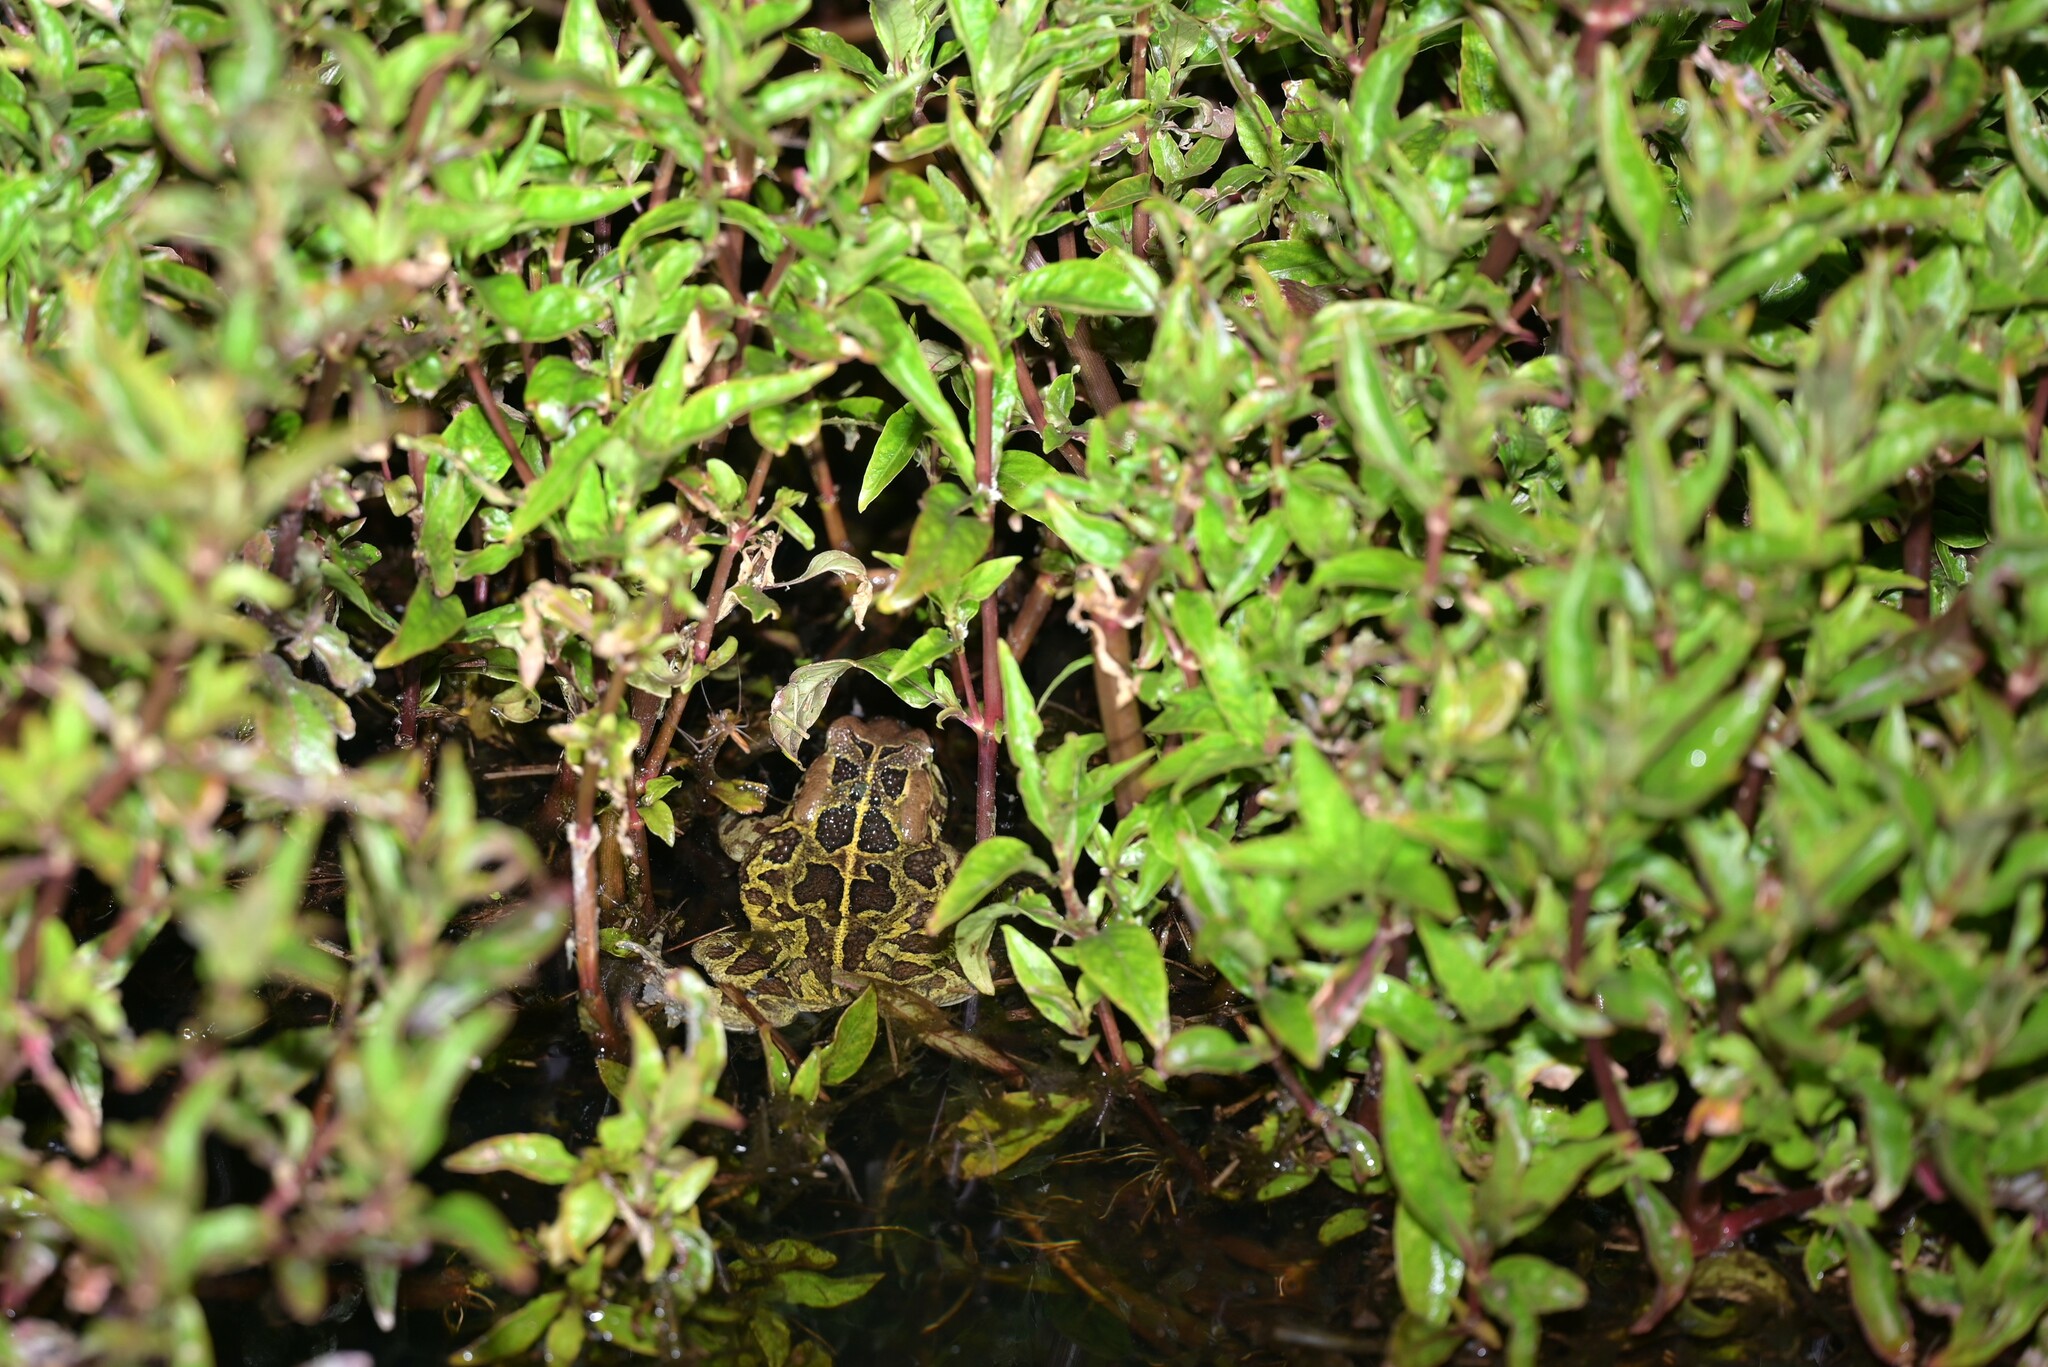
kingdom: Animalia
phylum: Chordata
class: Amphibia
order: Anura
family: Bufonidae
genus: Sclerophrys
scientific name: Sclerophrys pantherina
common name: Panther toad
